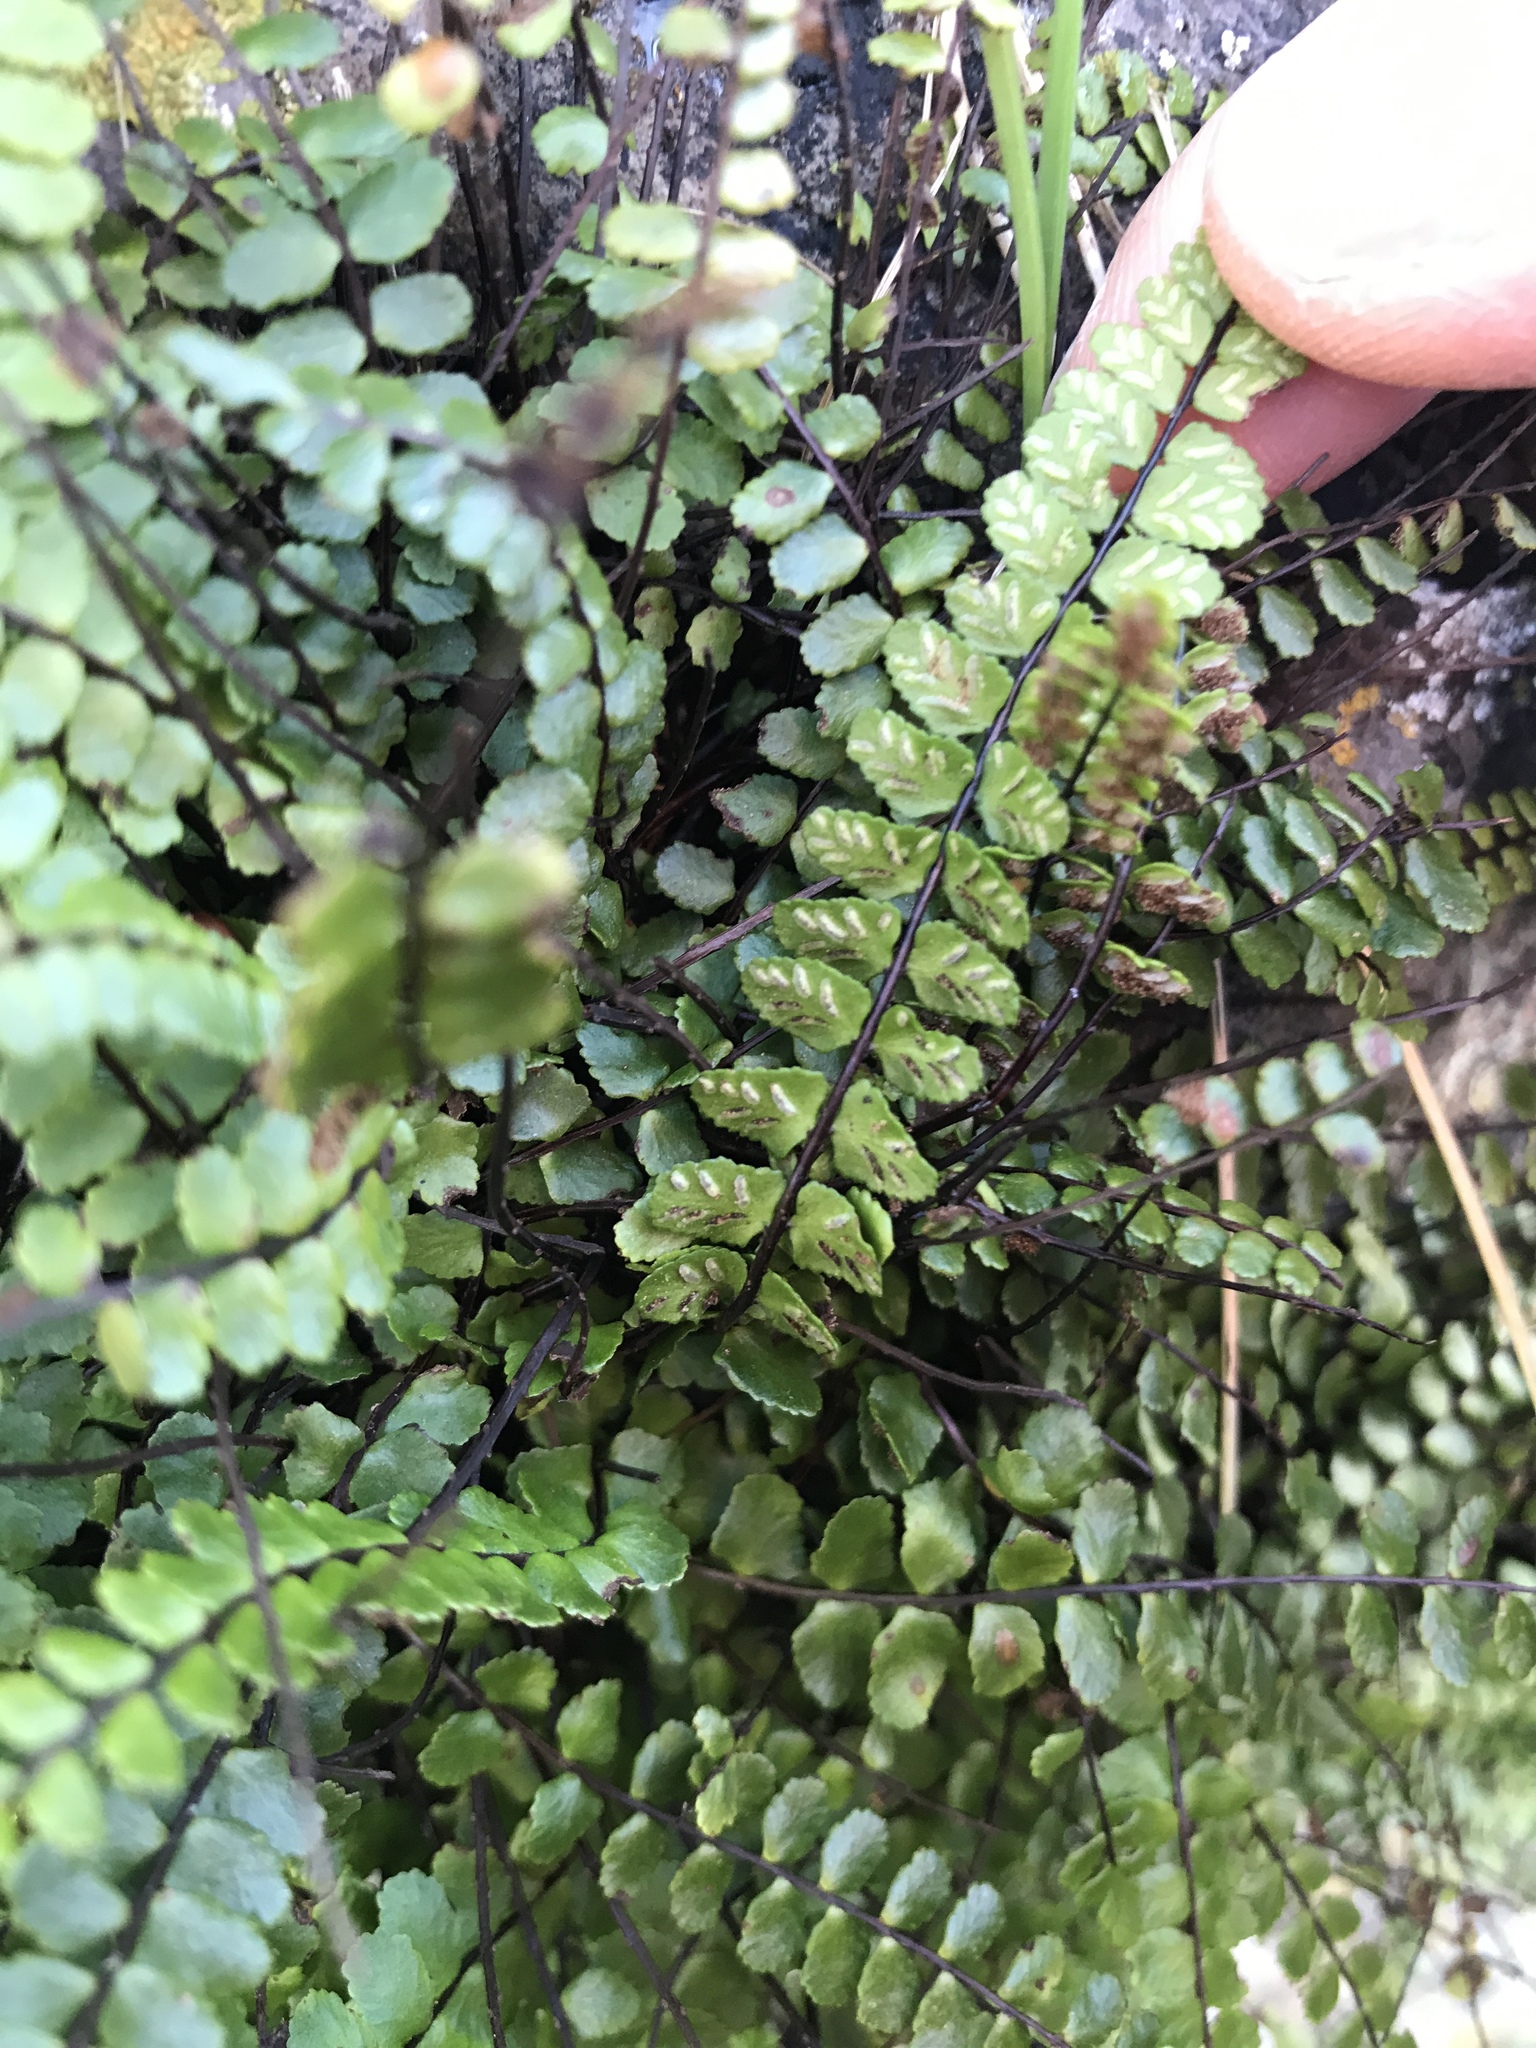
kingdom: Plantae
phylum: Tracheophyta
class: Polypodiopsida
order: Polypodiales
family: Aspleniaceae
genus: Asplenium
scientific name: Asplenium trichomanes
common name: Maidenhair spleenwort
